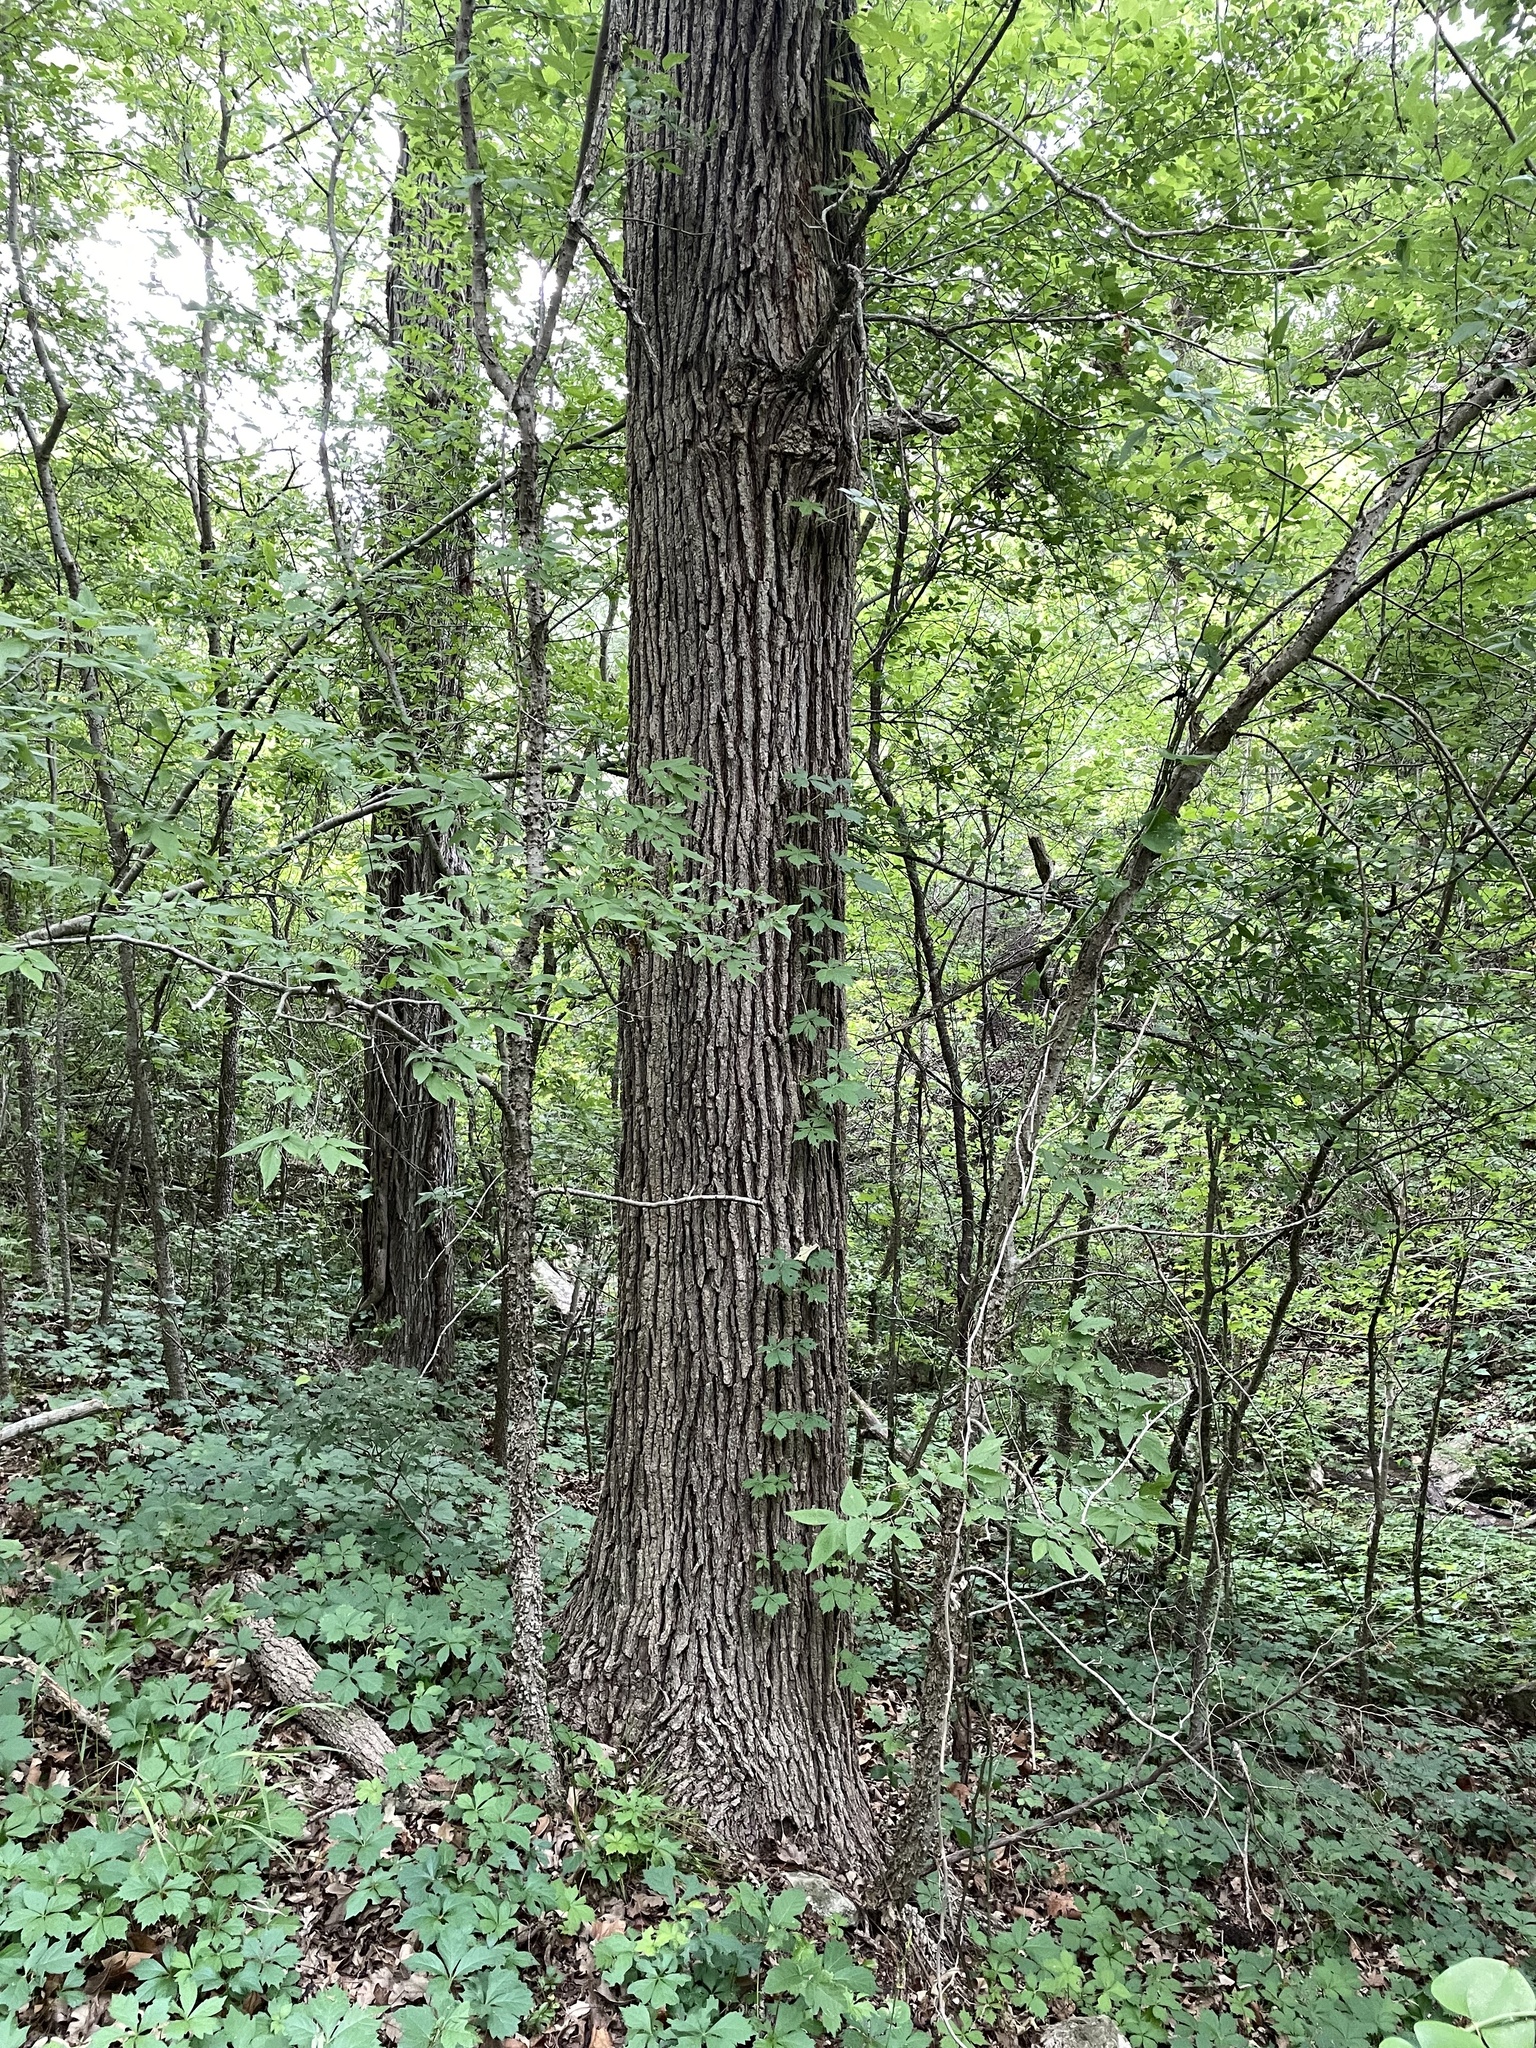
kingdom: Plantae
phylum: Tracheophyta
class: Magnoliopsida
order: Fagales
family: Fagaceae
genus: Quercus
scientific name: Quercus macrocarpa
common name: Bur oak
